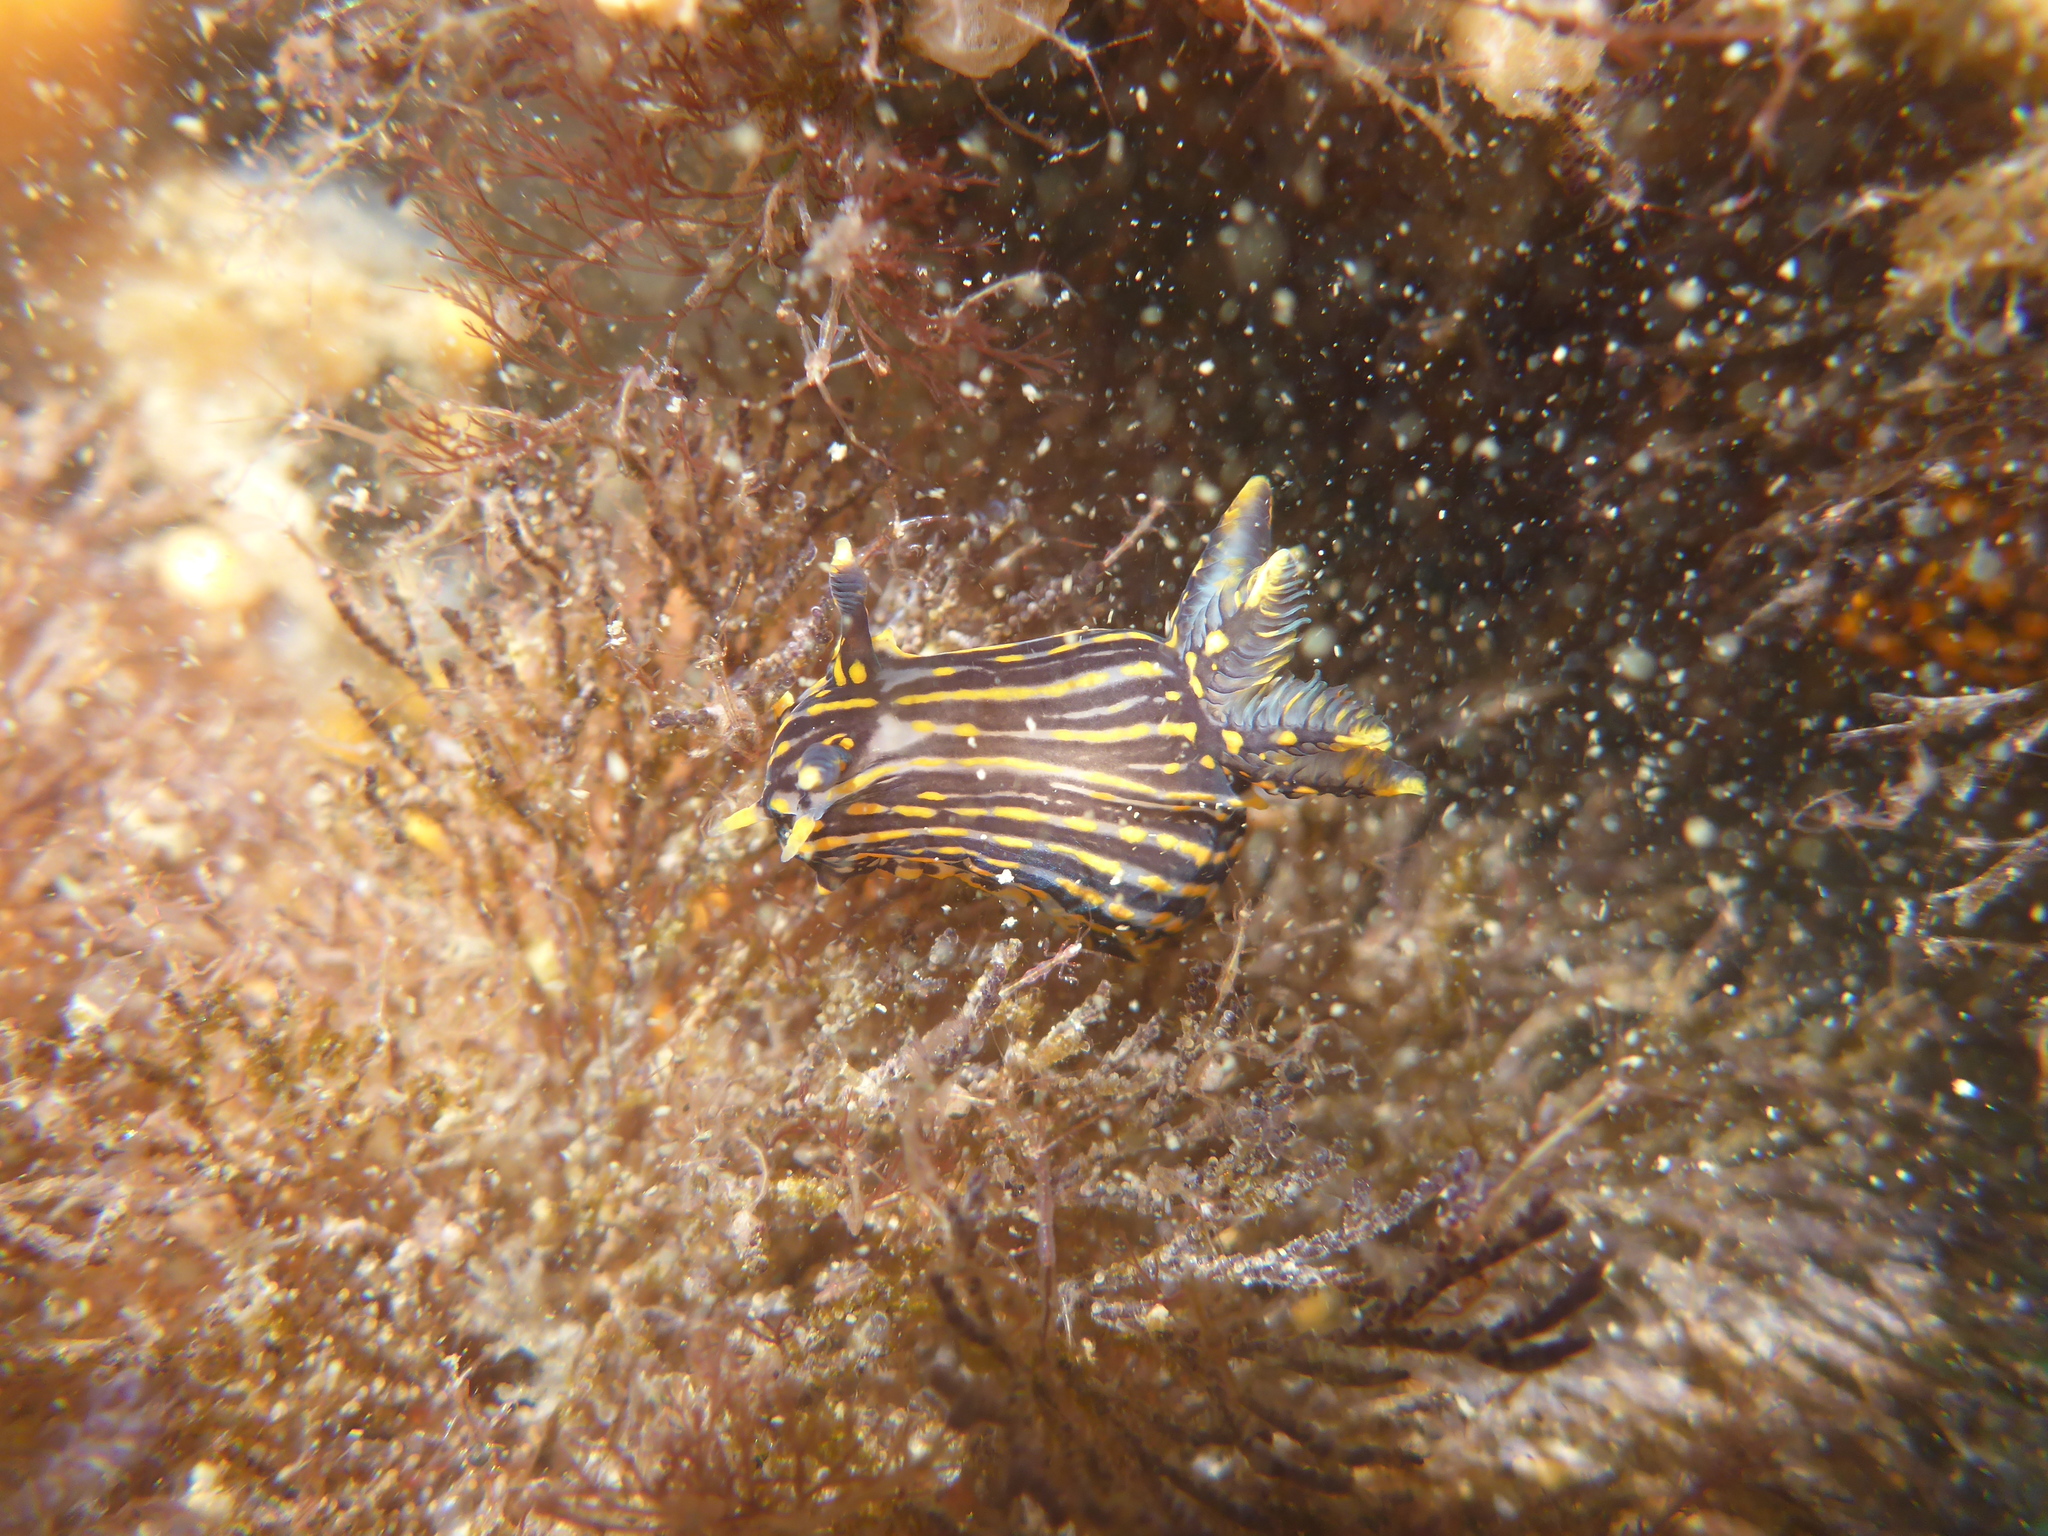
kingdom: Animalia
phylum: Mollusca
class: Gastropoda
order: Nudibranchia
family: Polyceridae
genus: Polycera
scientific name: Polycera atra
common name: Orange-spike polycera
